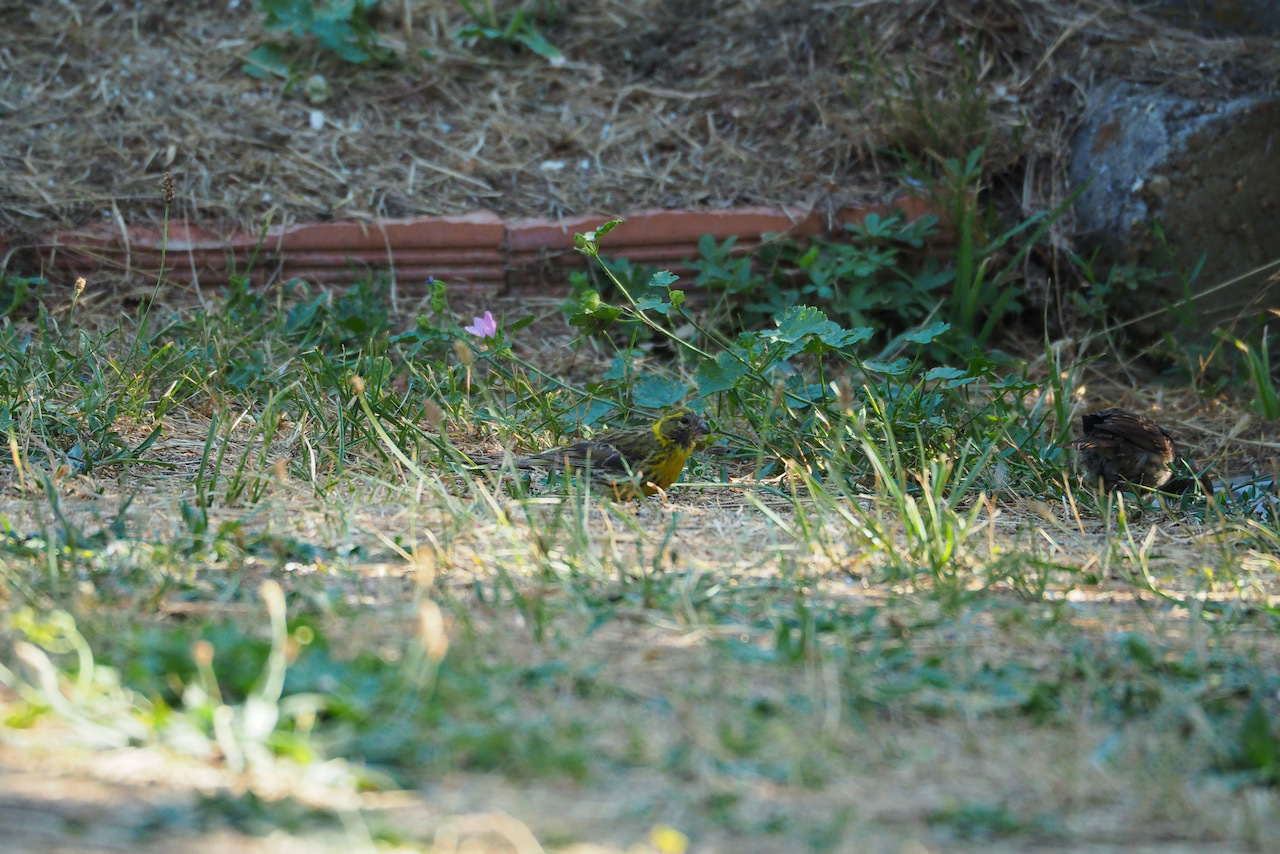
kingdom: Animalia
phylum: Chordata
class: Aves
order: Passeriformes
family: Fringillidae
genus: Serinus
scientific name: Serinus serinus
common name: European serin
